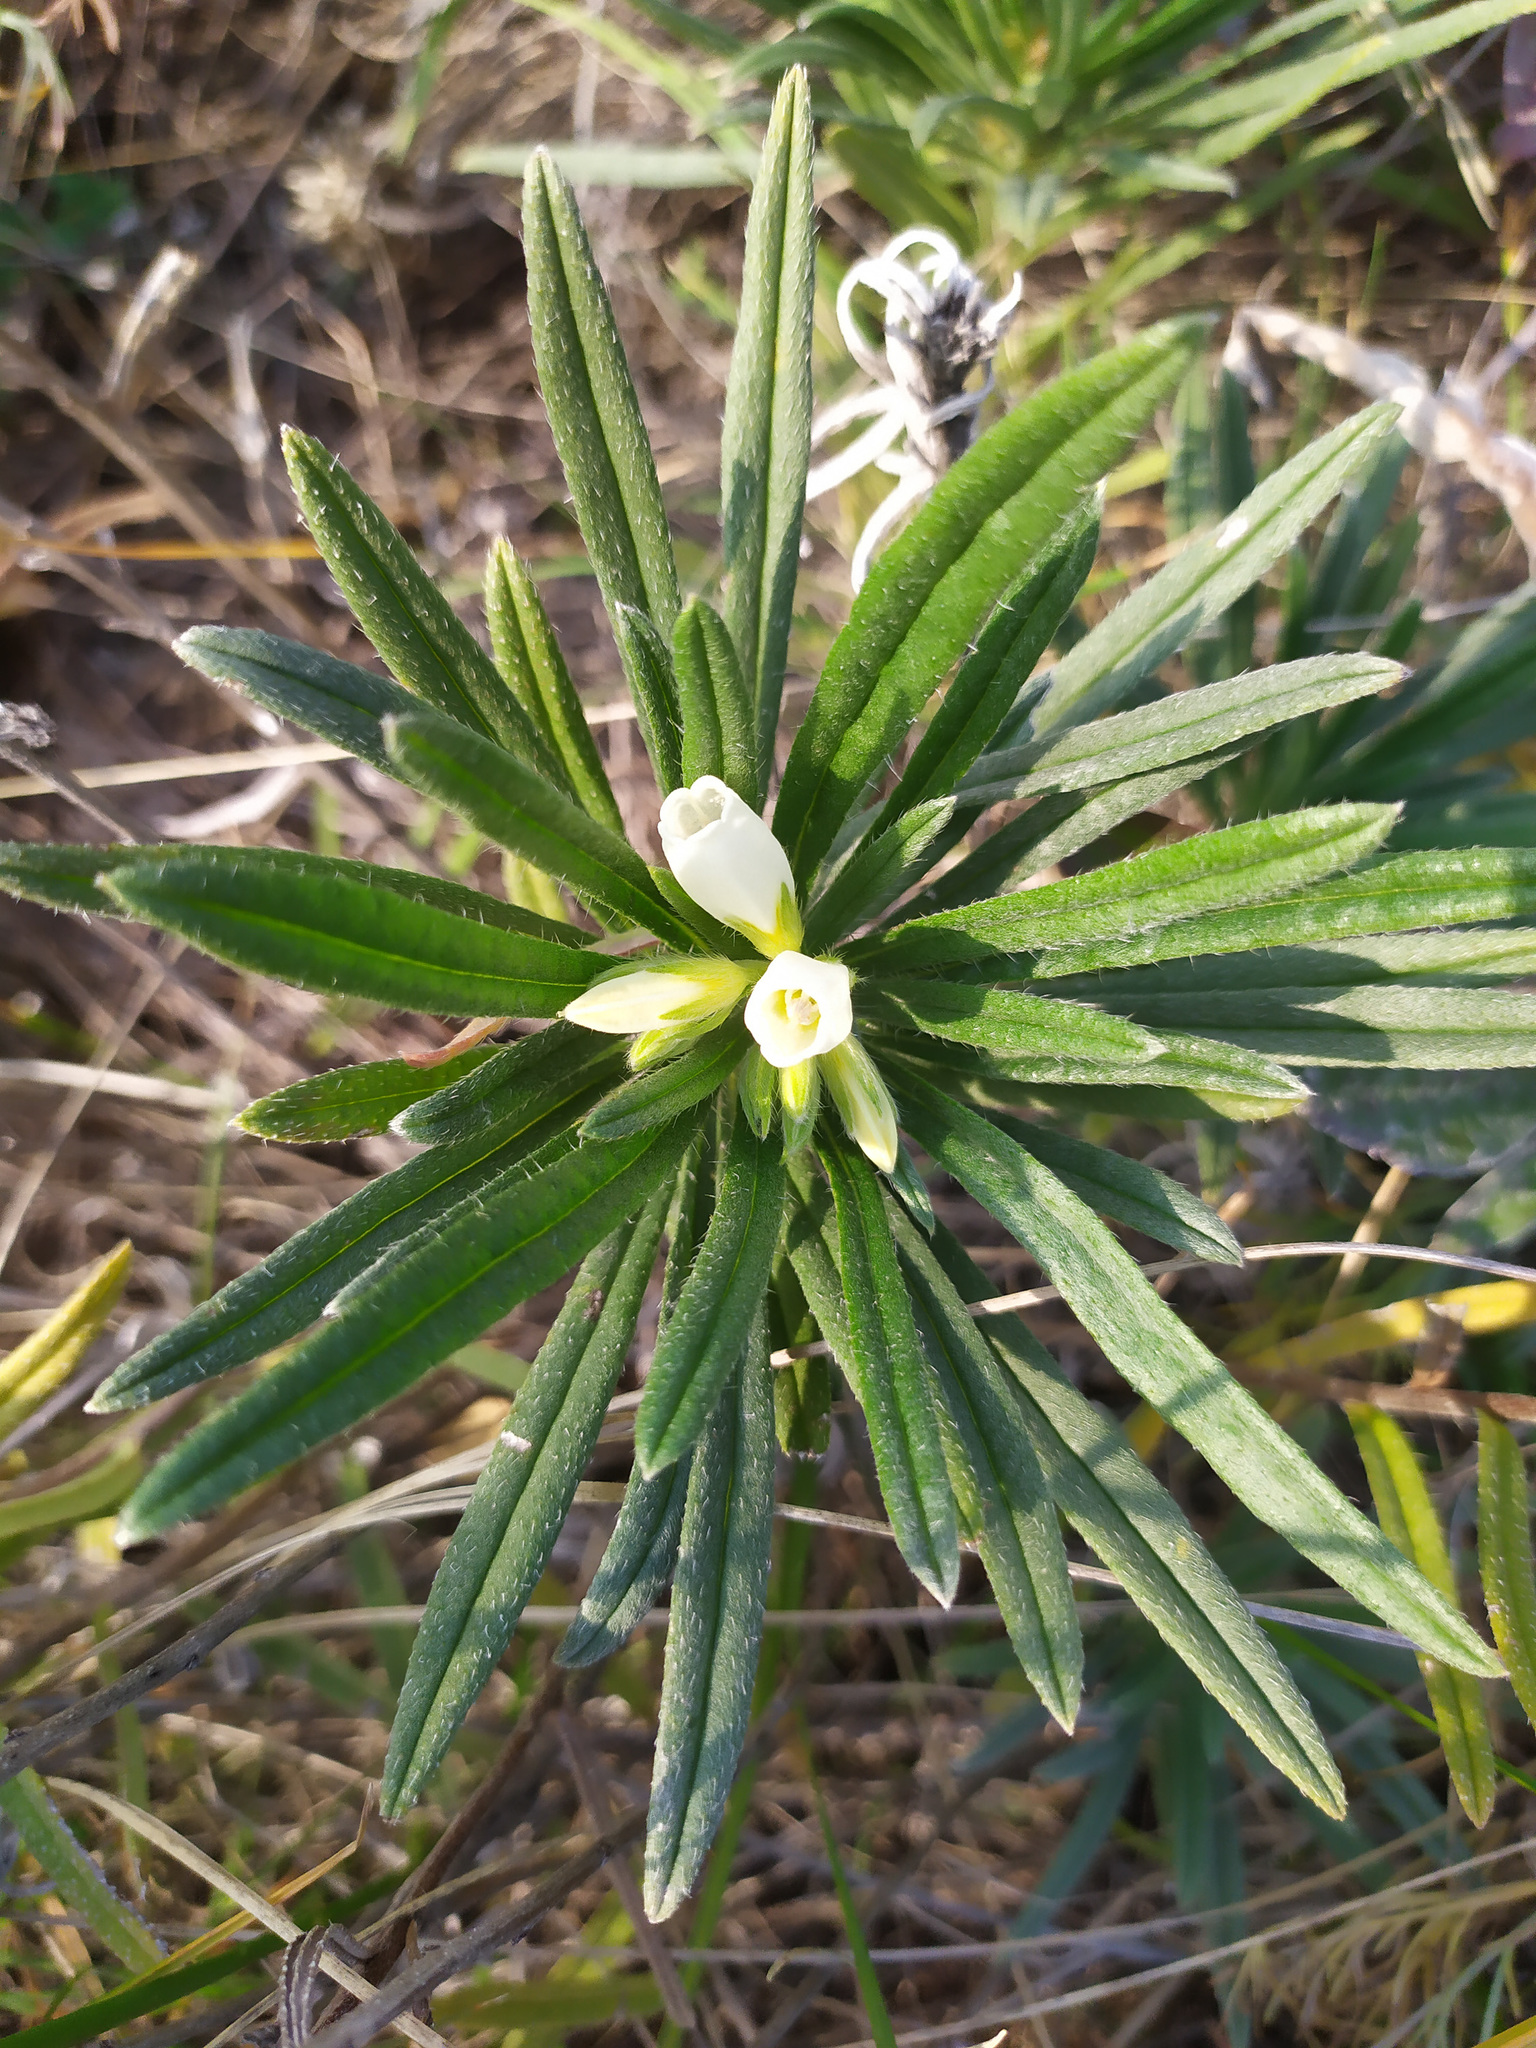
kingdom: Plantae
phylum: Tracheophyta
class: Magnoliopsida
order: Boraginales
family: Boraginaceae
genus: Onosma
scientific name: Onosma simplicissima
